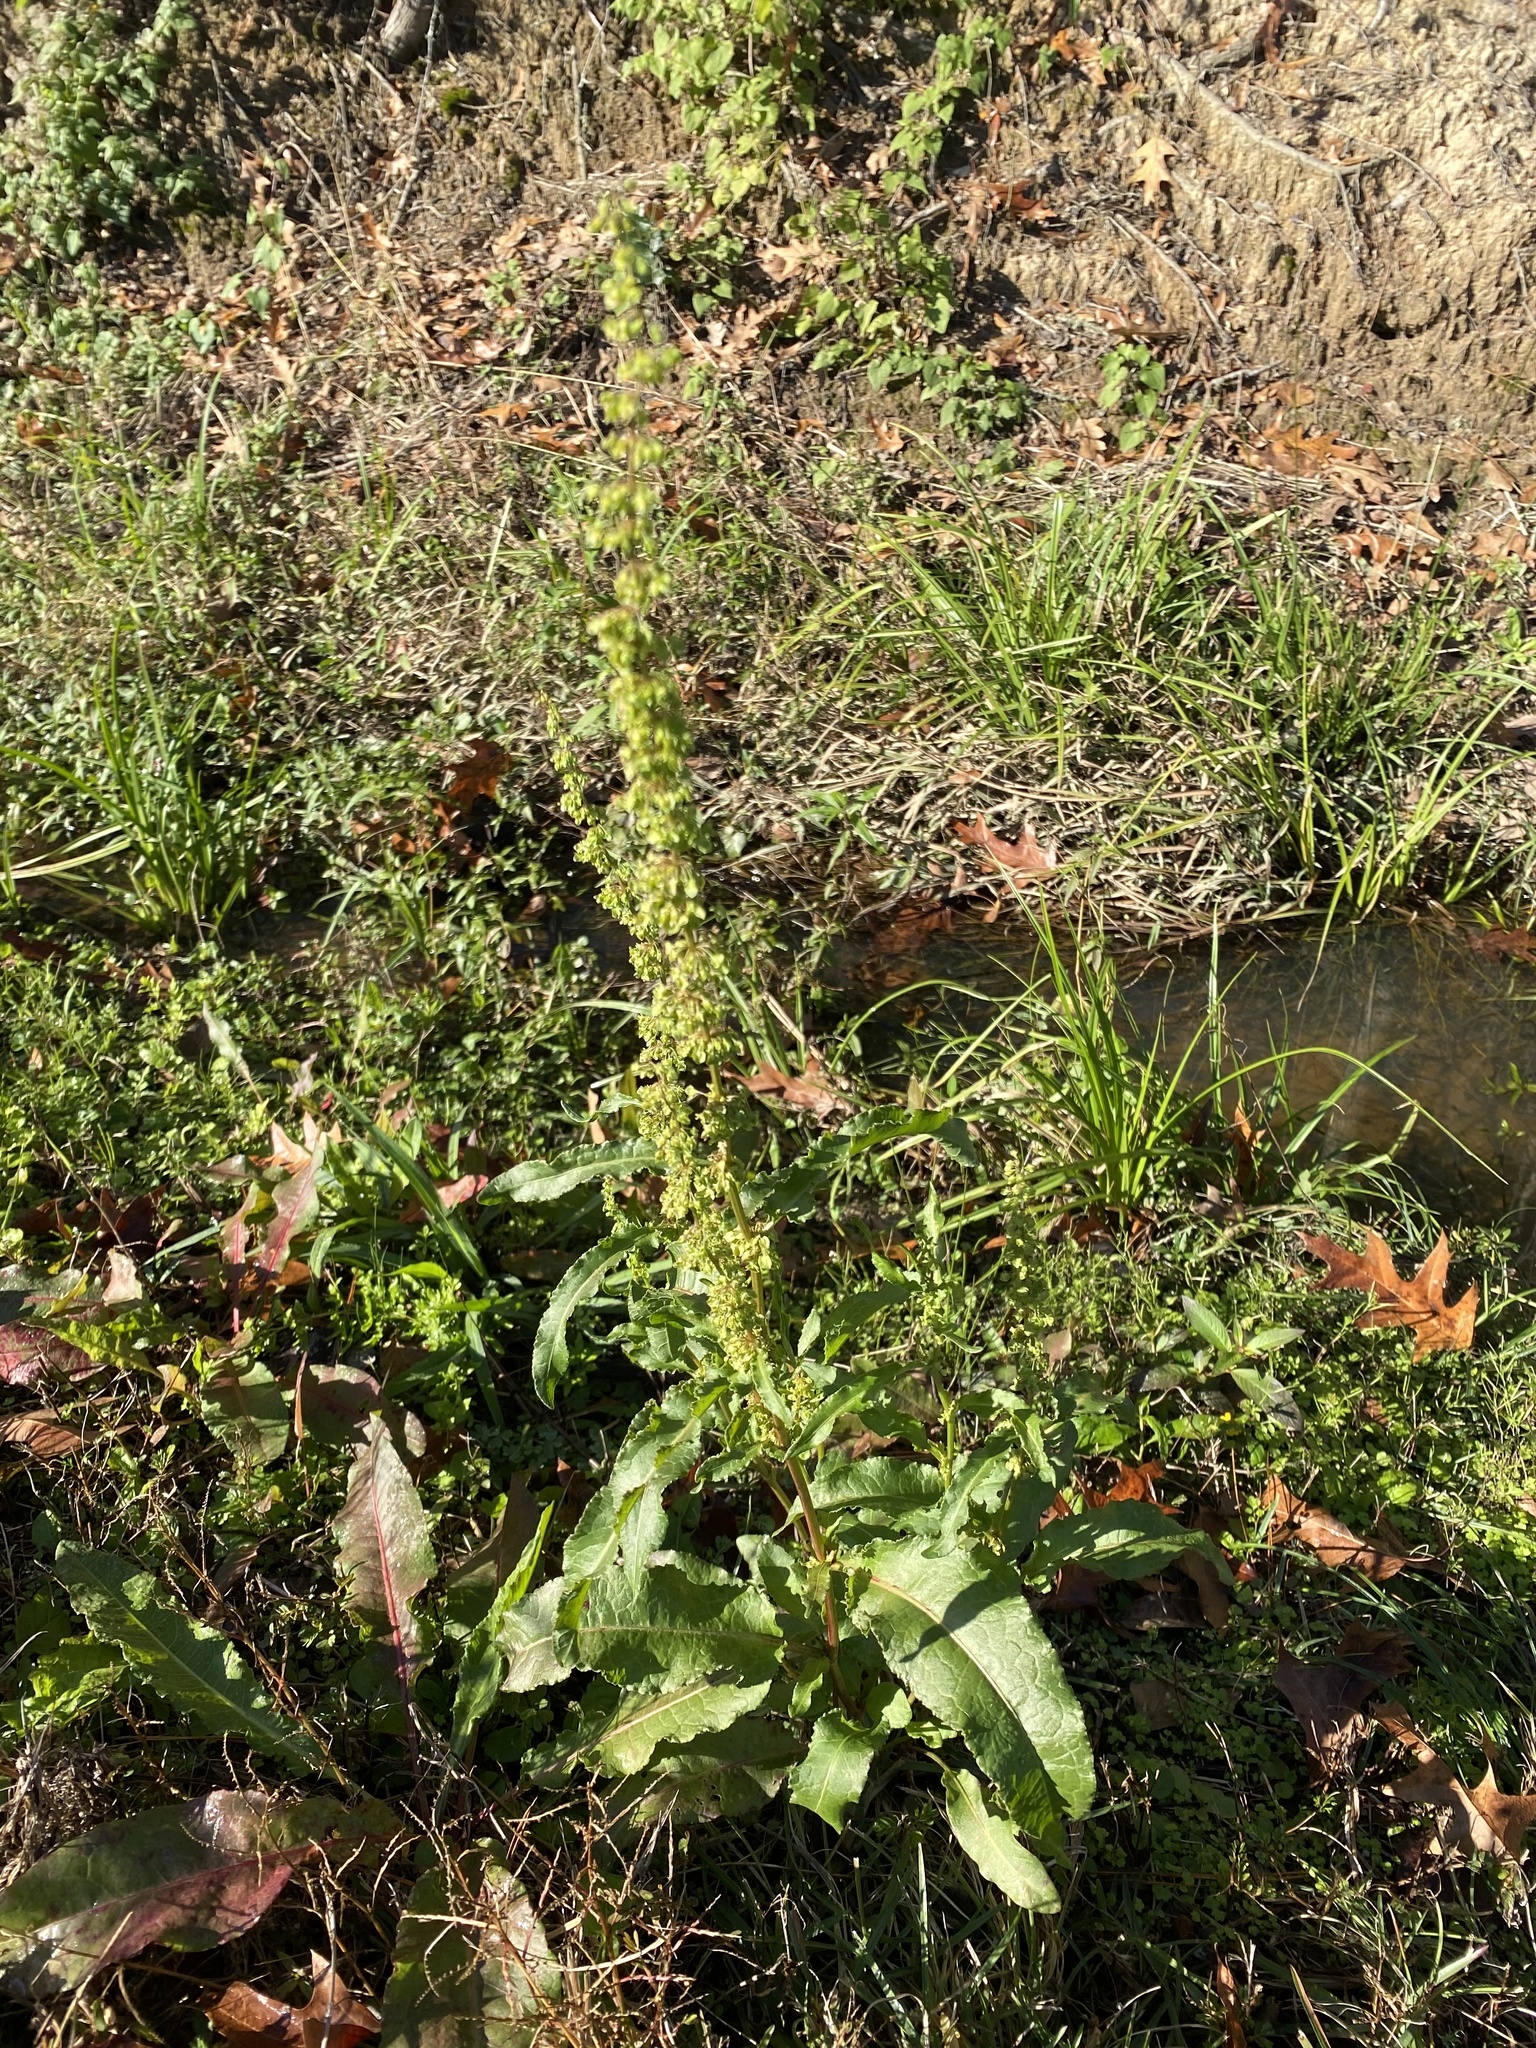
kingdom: Plantae
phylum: Tracheophyta
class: Magnoliopsida
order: Caryophyllales
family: Polygonaceae
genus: Rumex
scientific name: Rumex crispus
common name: Curled dock
